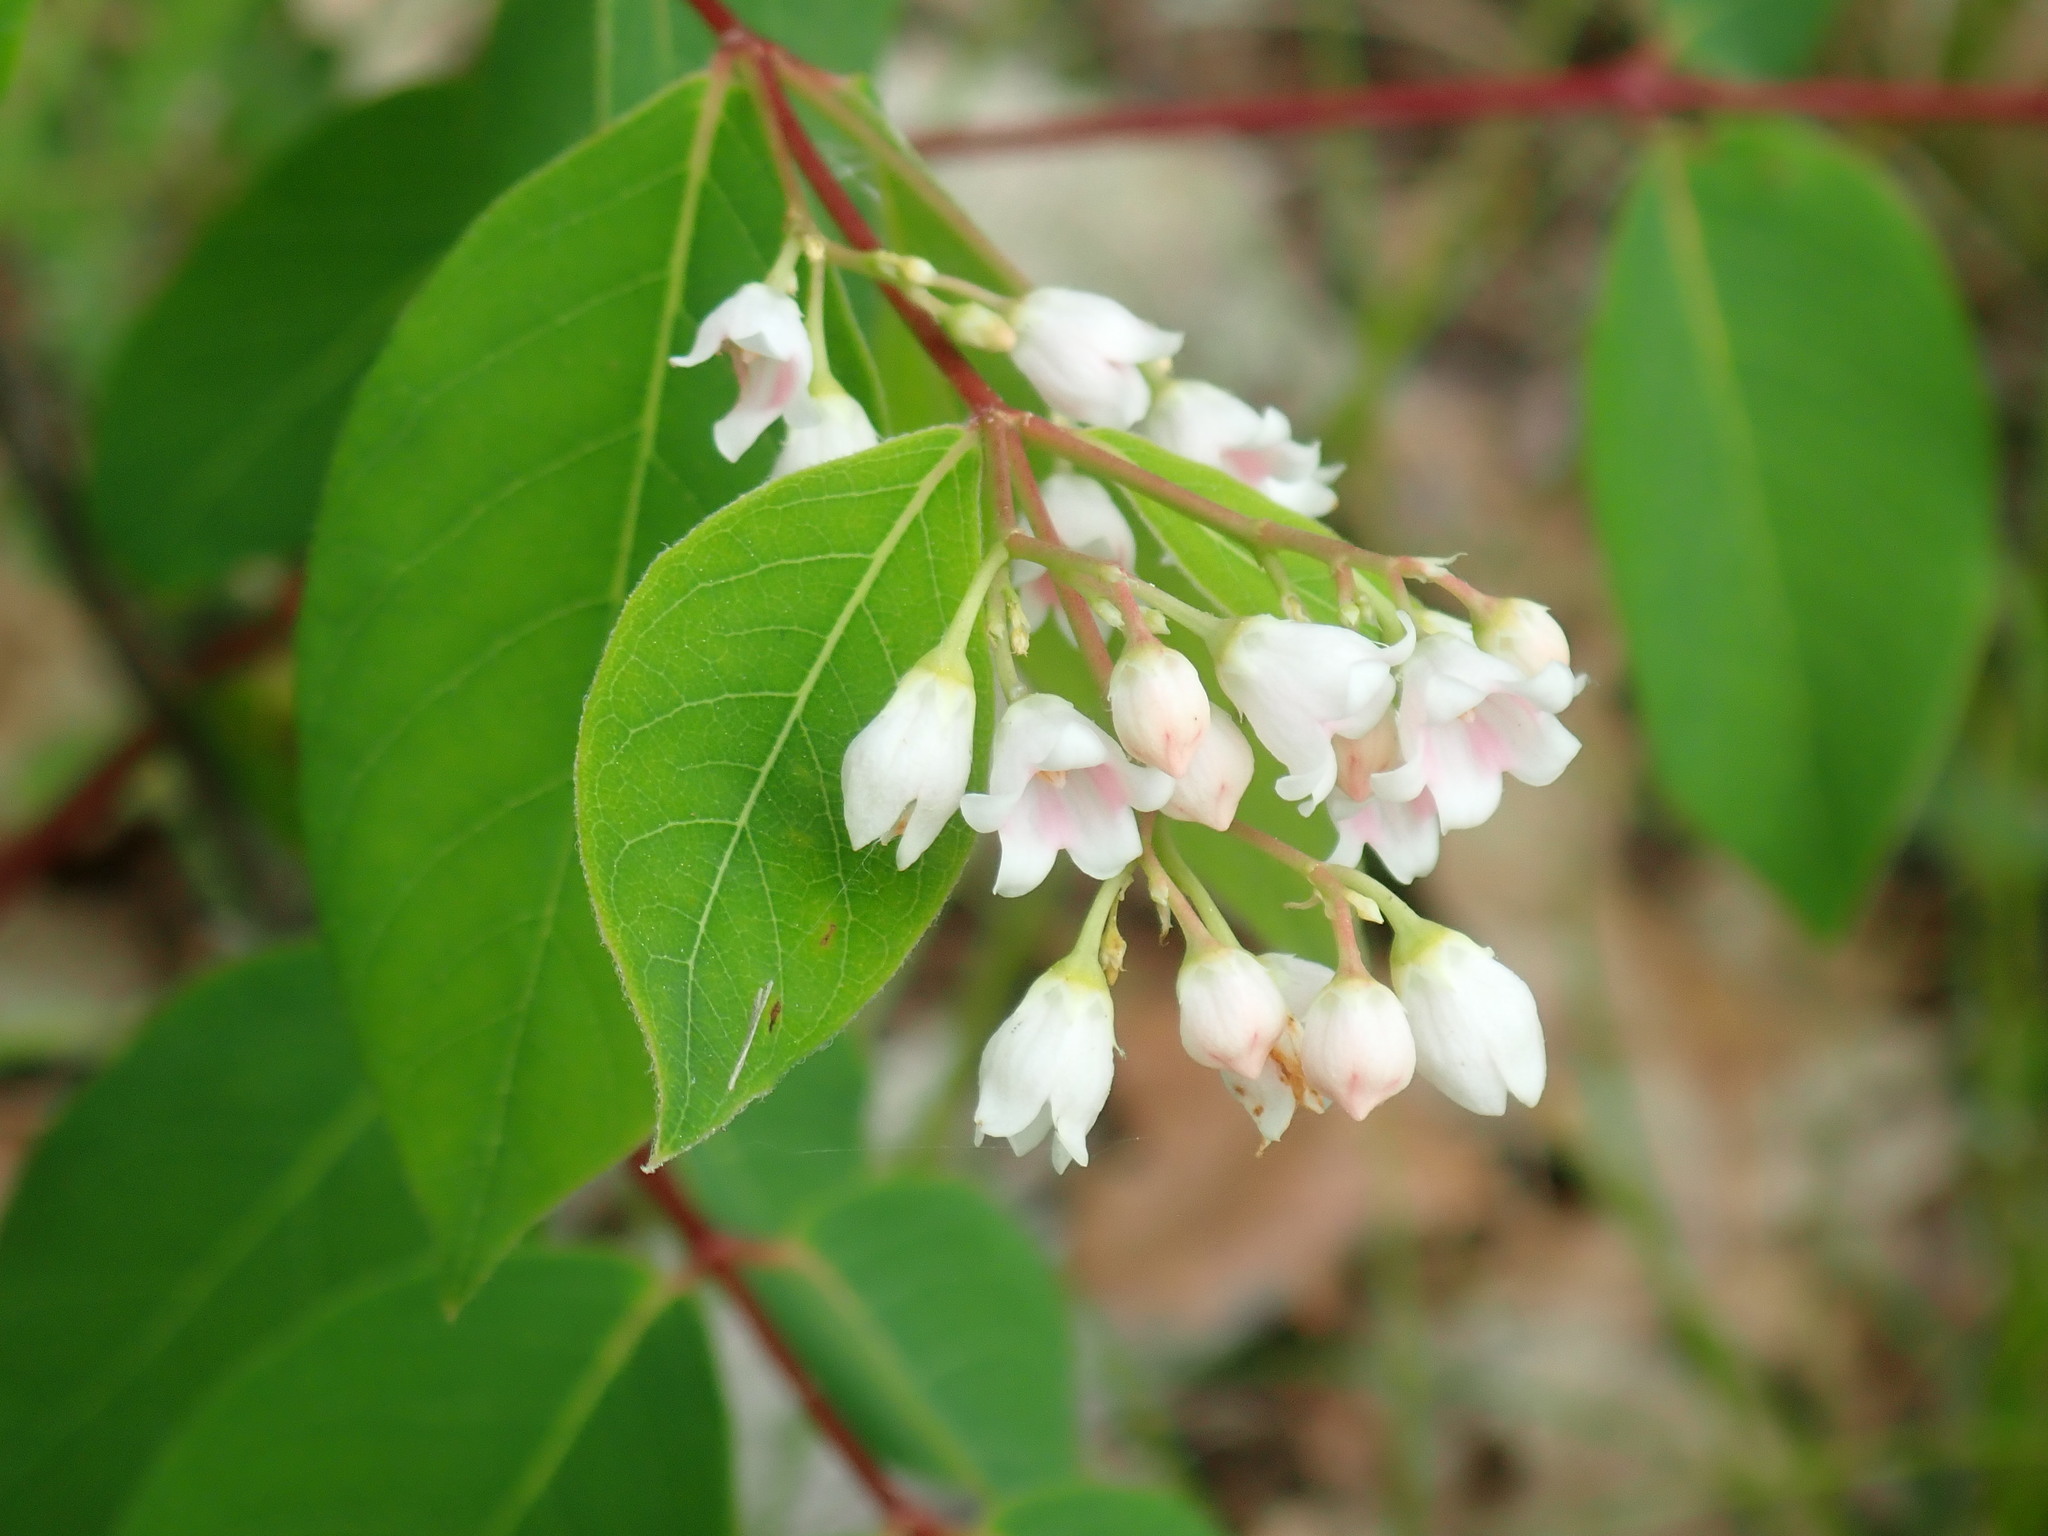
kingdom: Plantae
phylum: Tracheophyta
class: Magnoliopsida
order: Gentianales
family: Apocynaceae
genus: Apocynum
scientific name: Apocynum androsaemifolium
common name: Spreading dogbane
